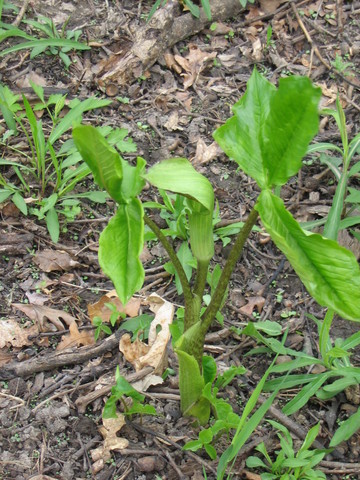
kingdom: Plantae
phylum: Tracheophyta
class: Liliopsida
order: Alismatales
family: Araceae
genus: Arisaema
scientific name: Arisaema triphyllum
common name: Jack-in-the-pulpit
